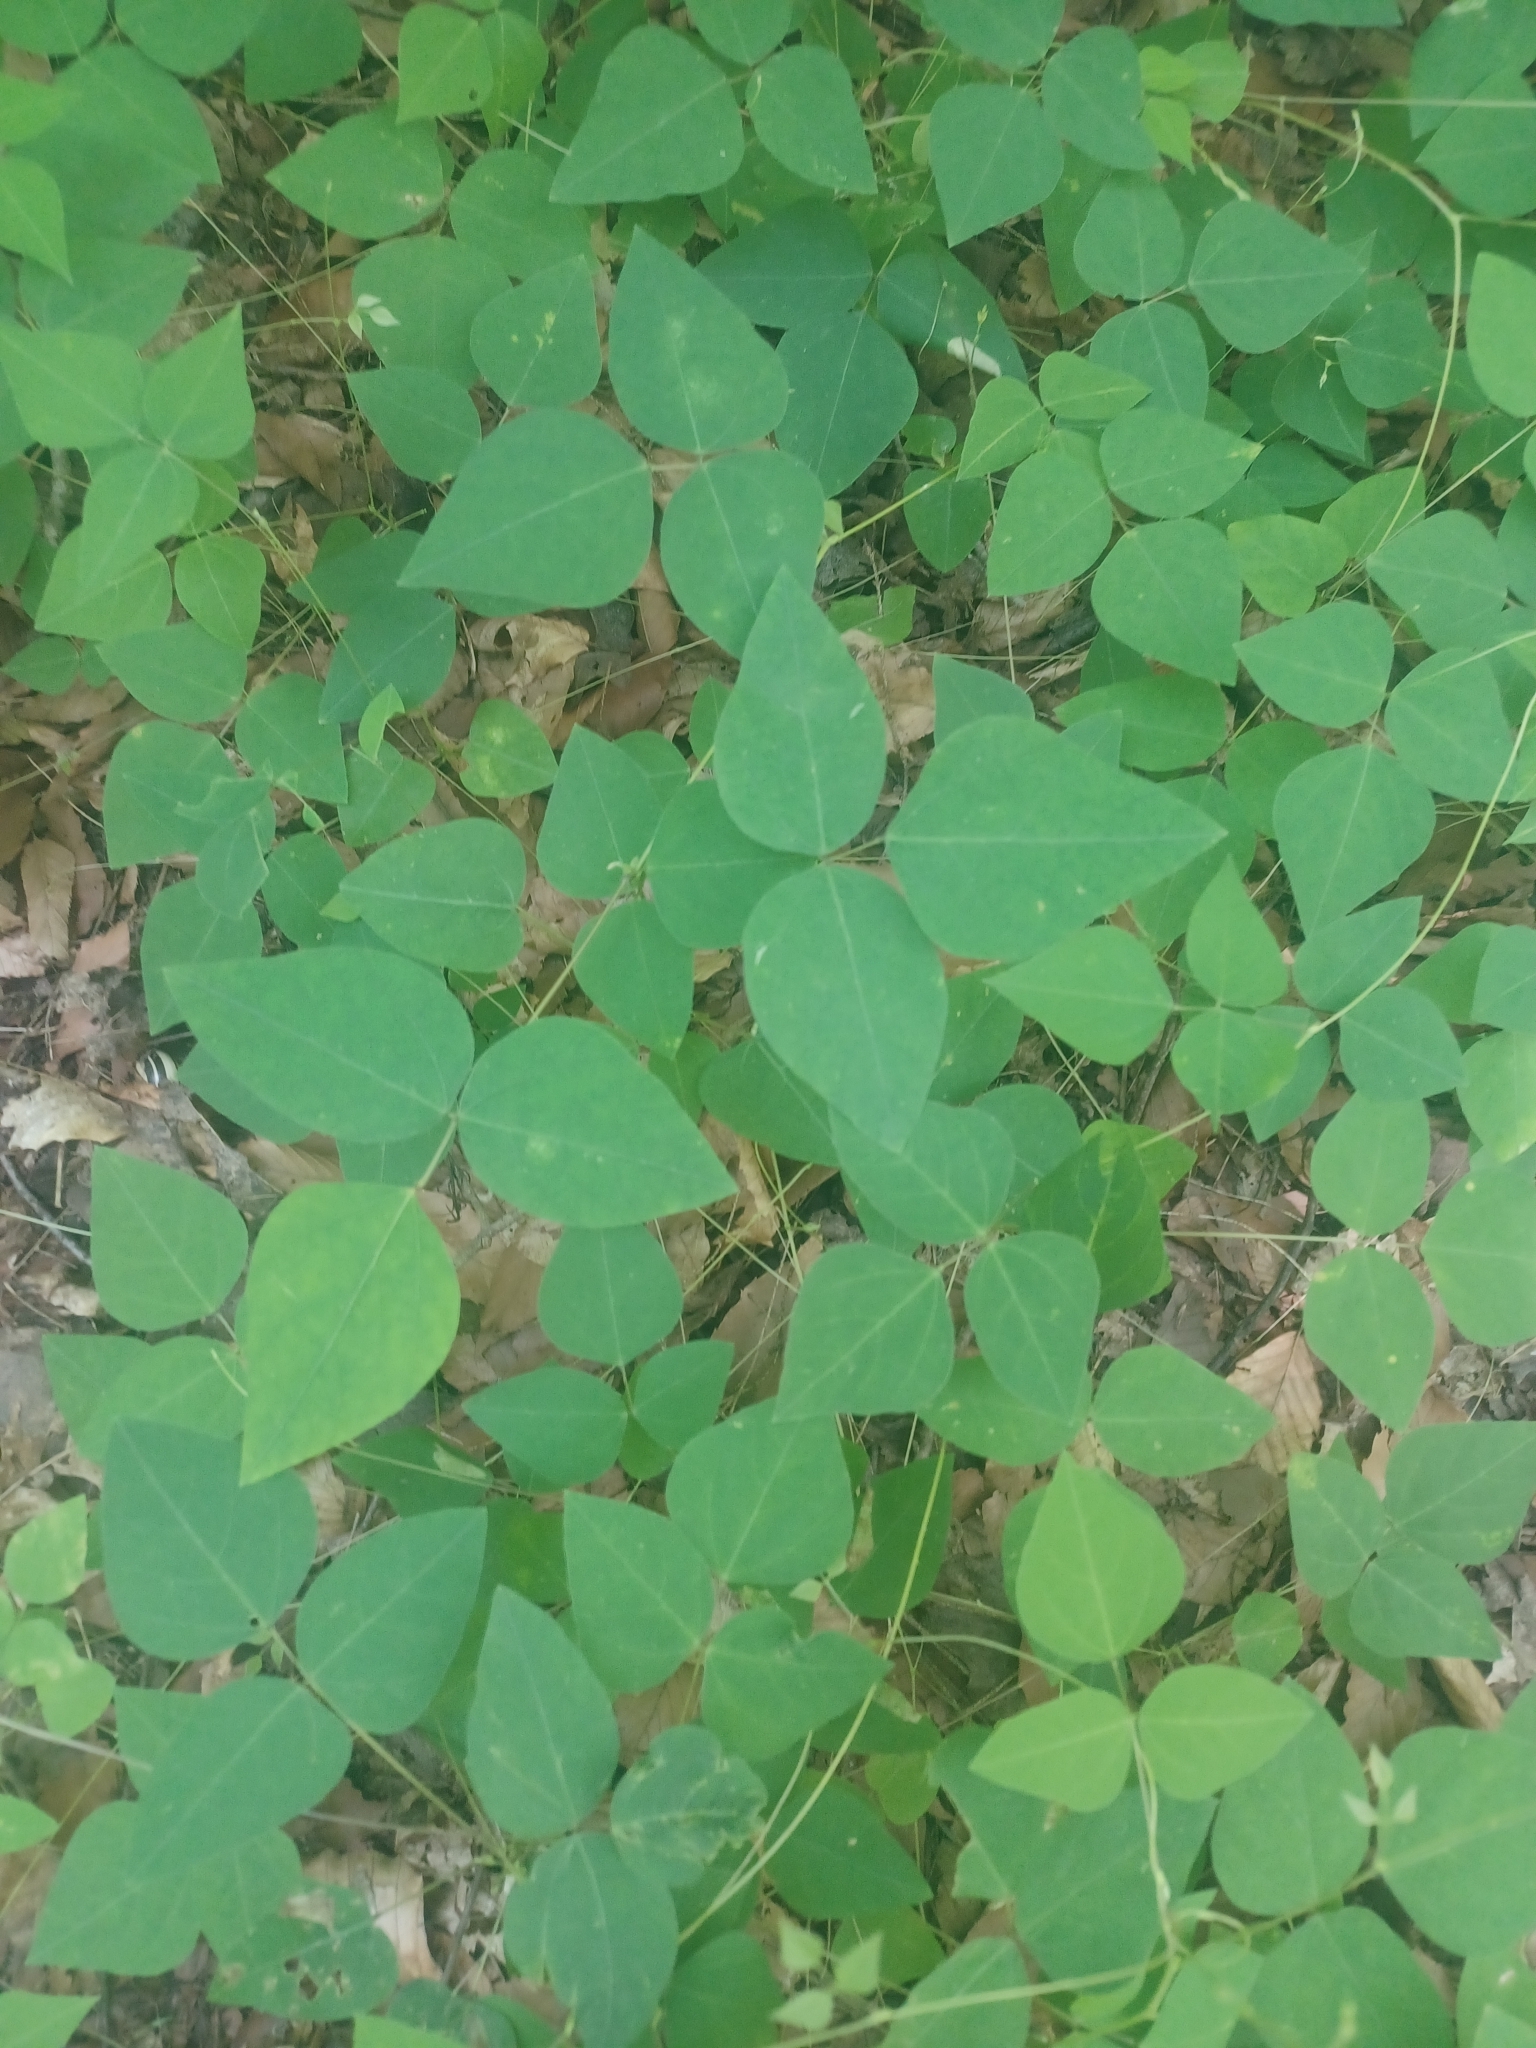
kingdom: Plantae
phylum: Tracheophyta
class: Magnoliopsida
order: Fabales
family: Fabaceae
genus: Amphicarpaea
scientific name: Amphicarpaea bracteata
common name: American hog peanut
